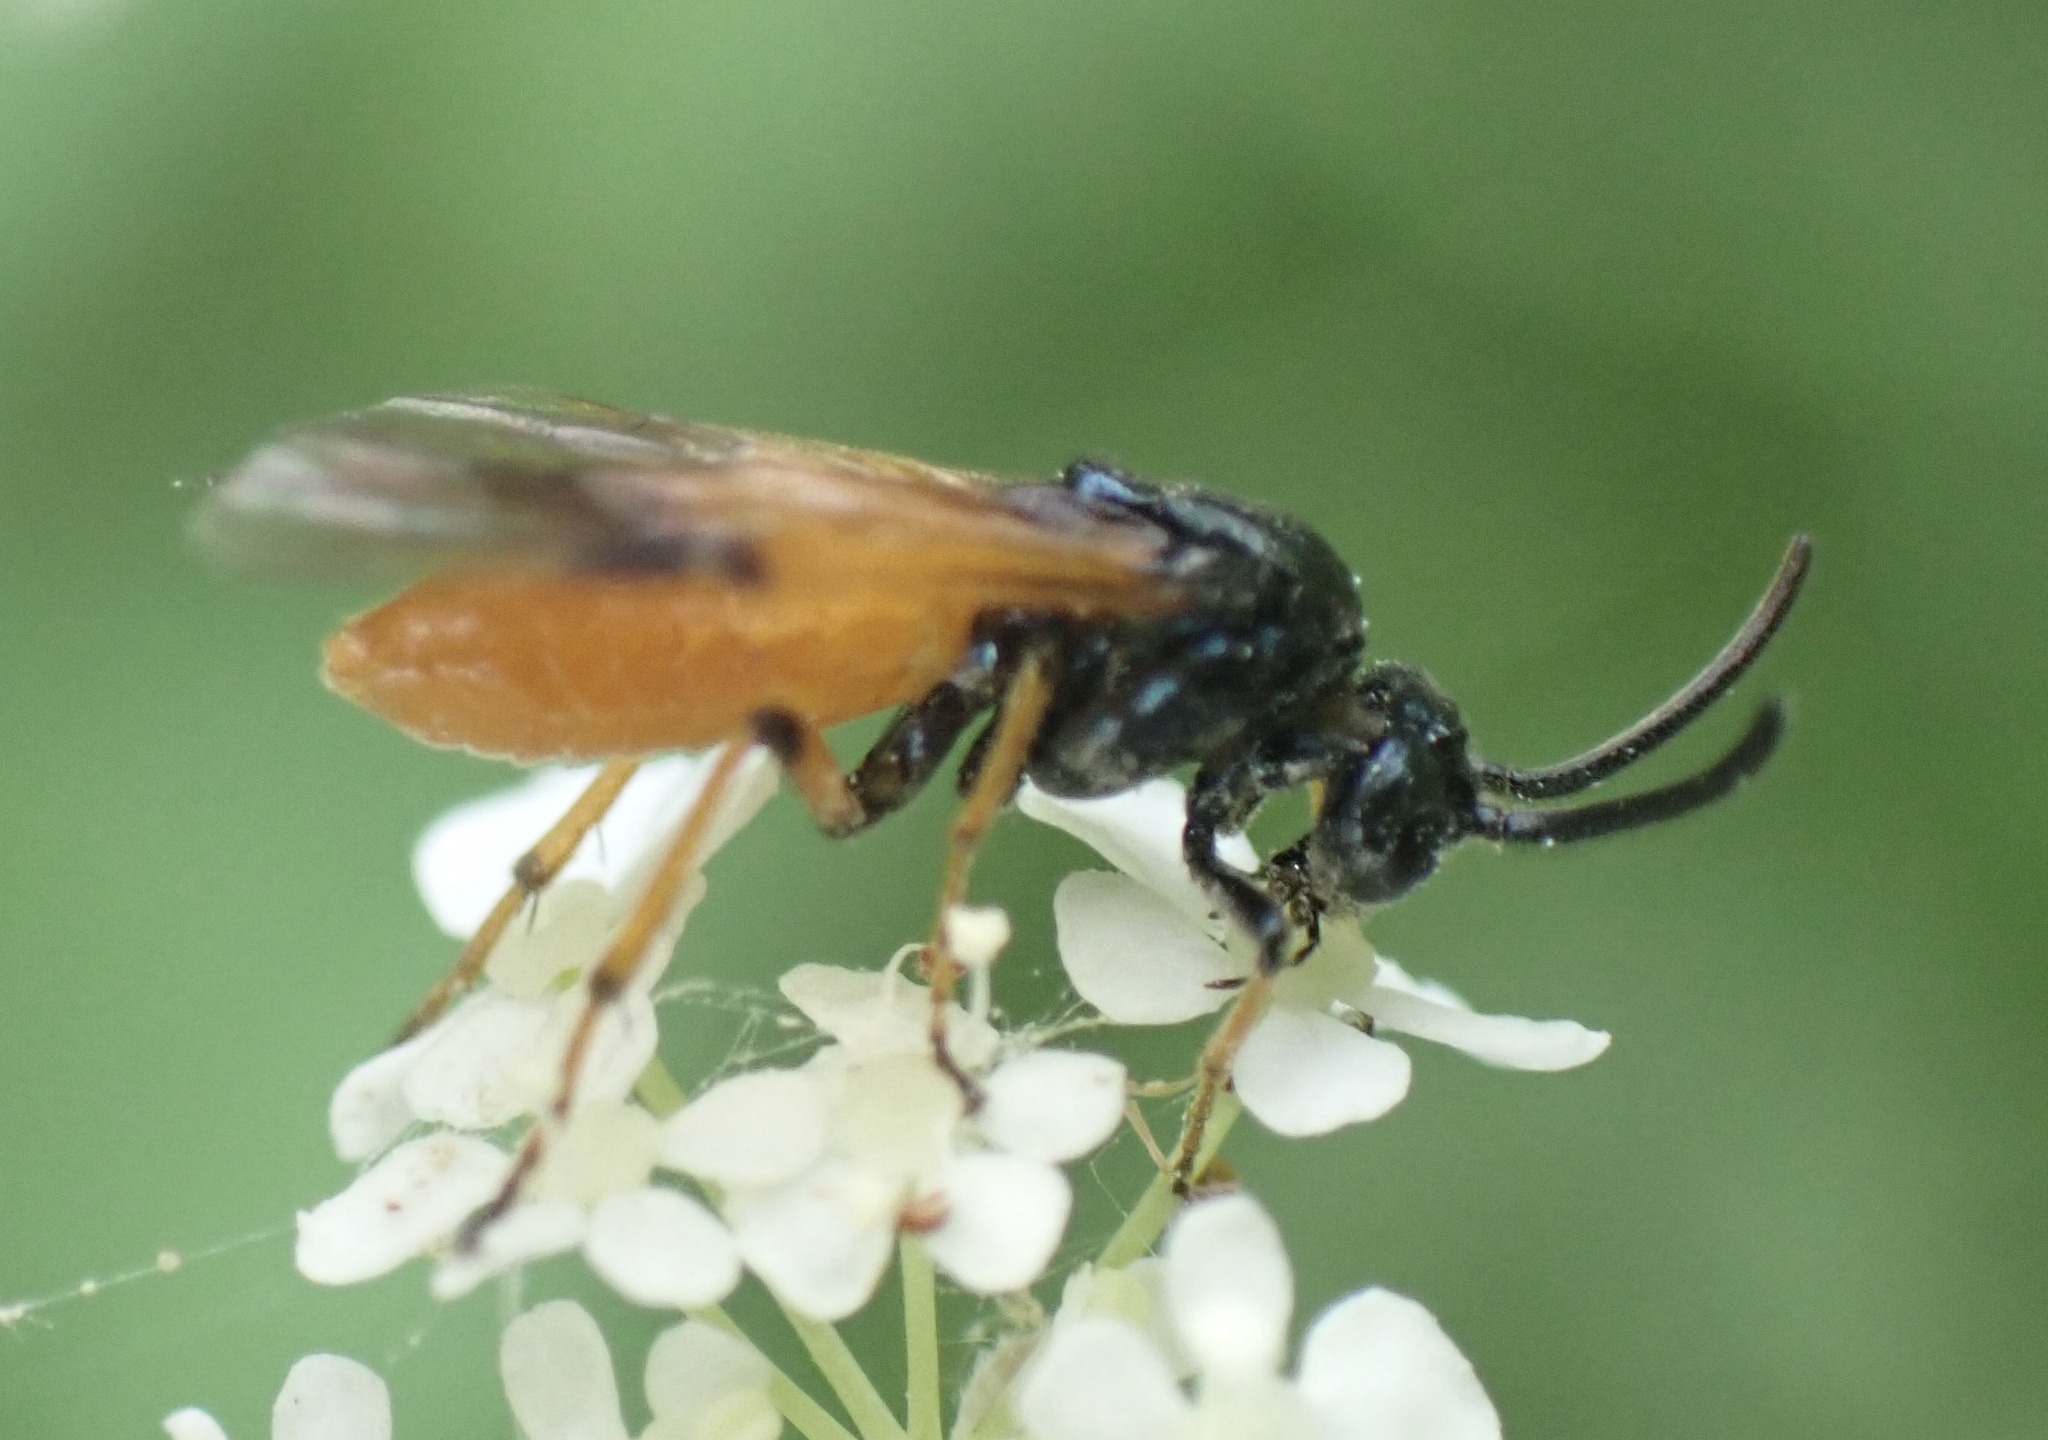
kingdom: Animalia
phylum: Arthropoda
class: Insecta
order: Hymenoptera
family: Argidae
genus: Arge
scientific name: Arge cyanocrocea
